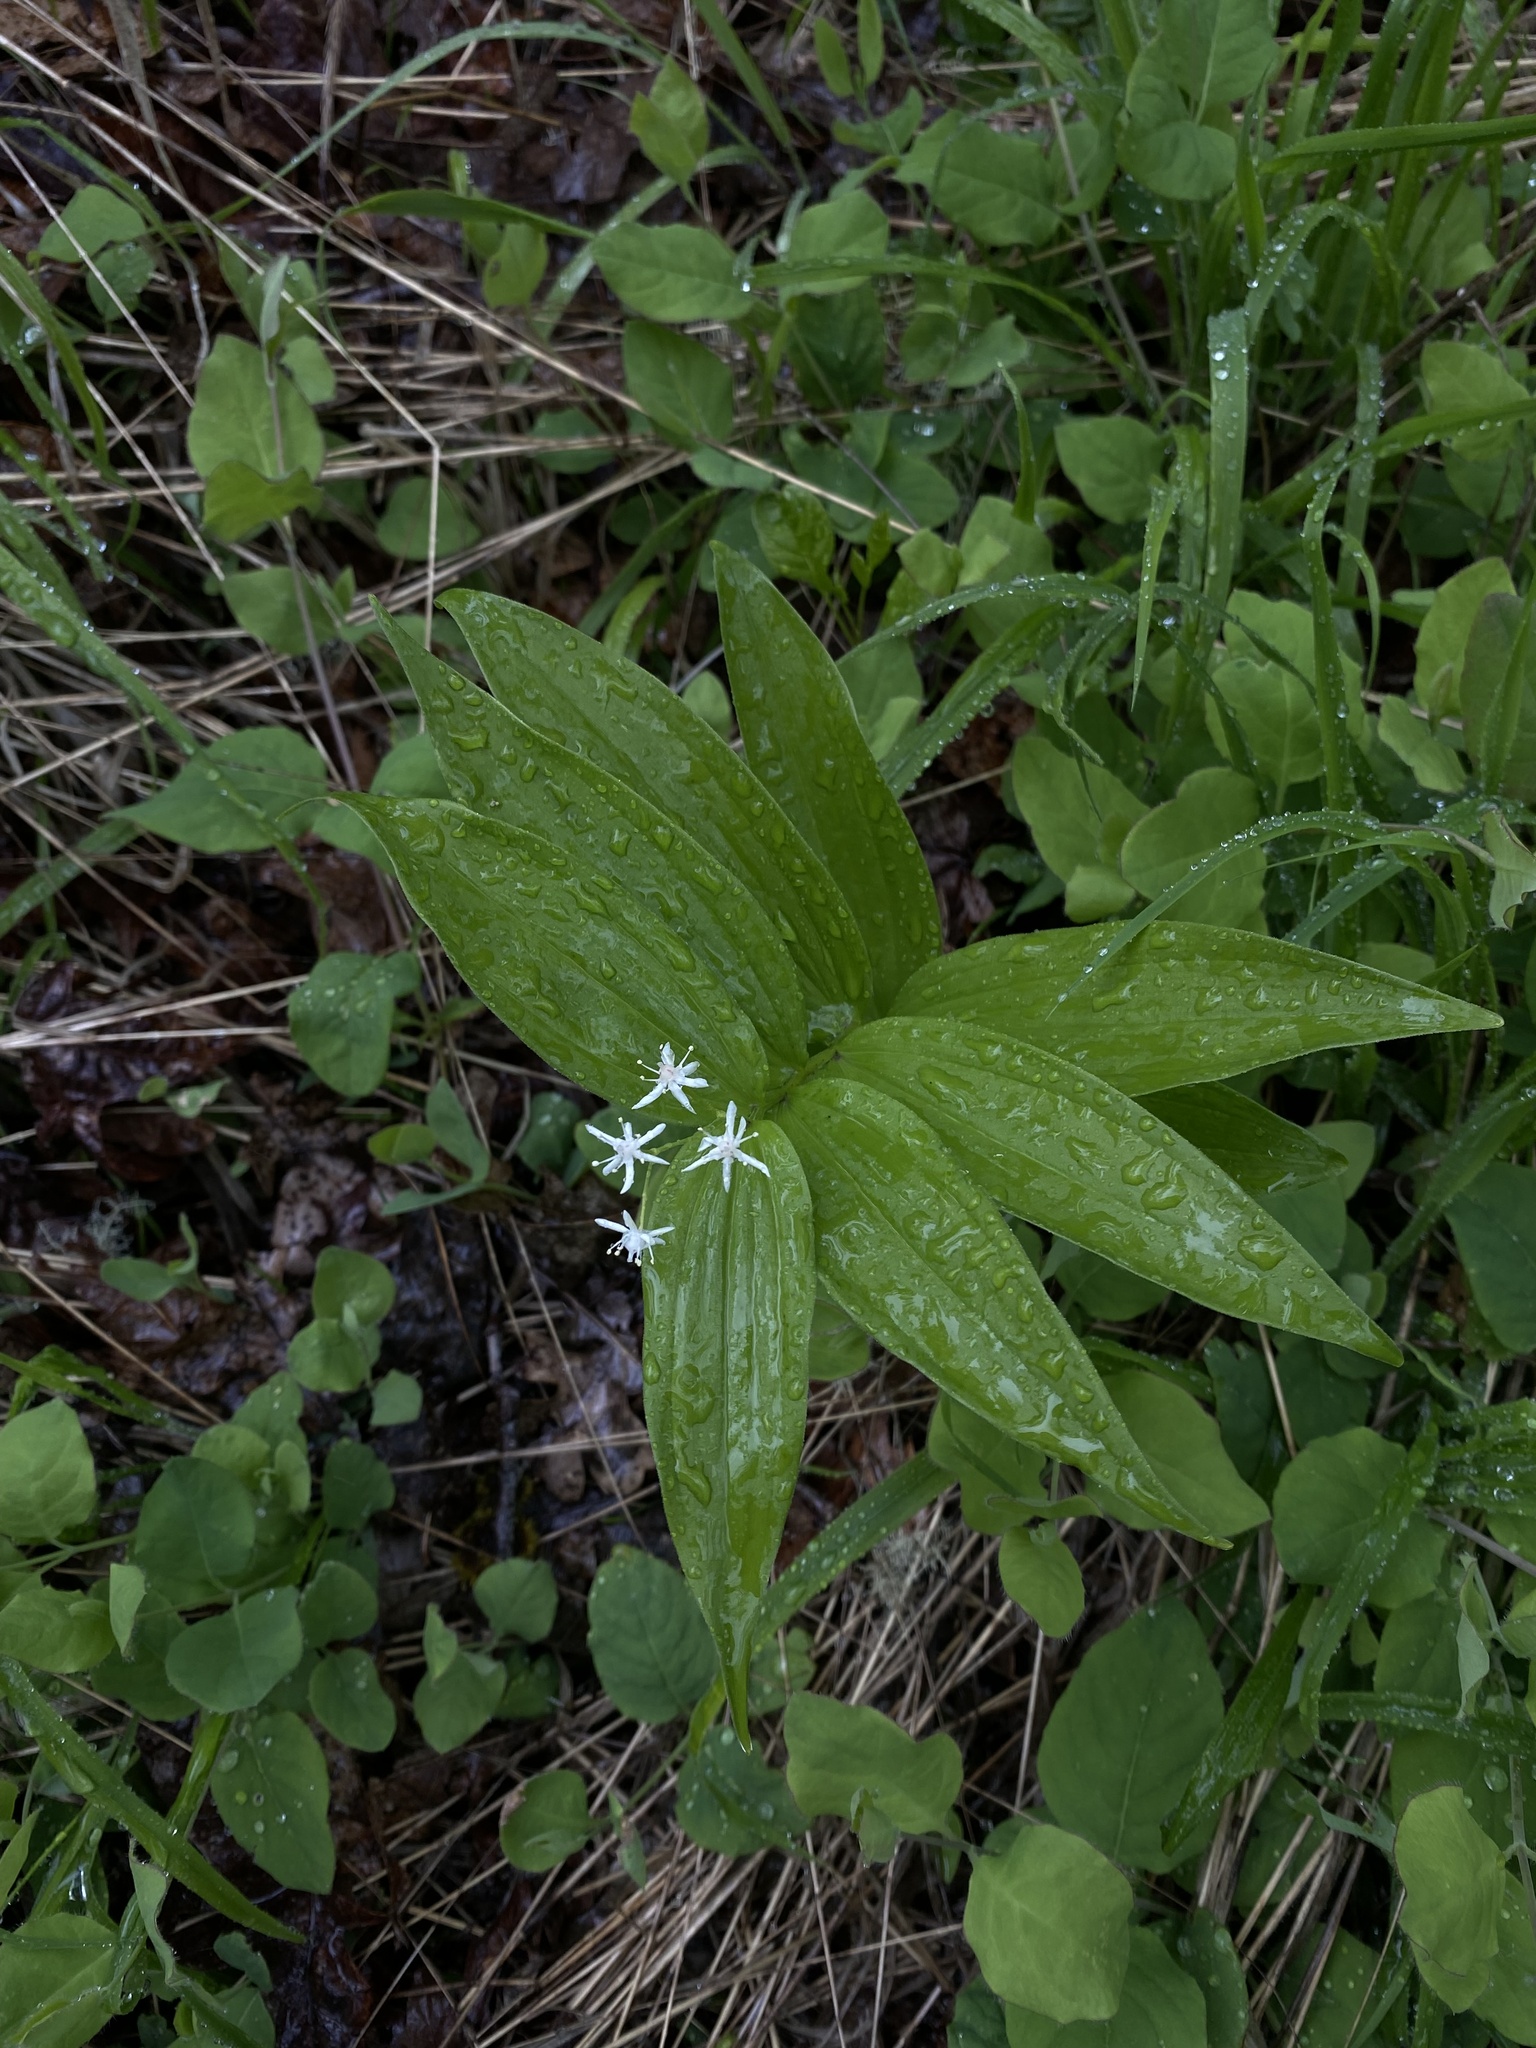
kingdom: Plantae
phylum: Tracheophyta
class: Liliopsida
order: Asparagales
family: Asparagaceae
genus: Maianthemum
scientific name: Maianthemum stellatum
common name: Little false solomon's seal
